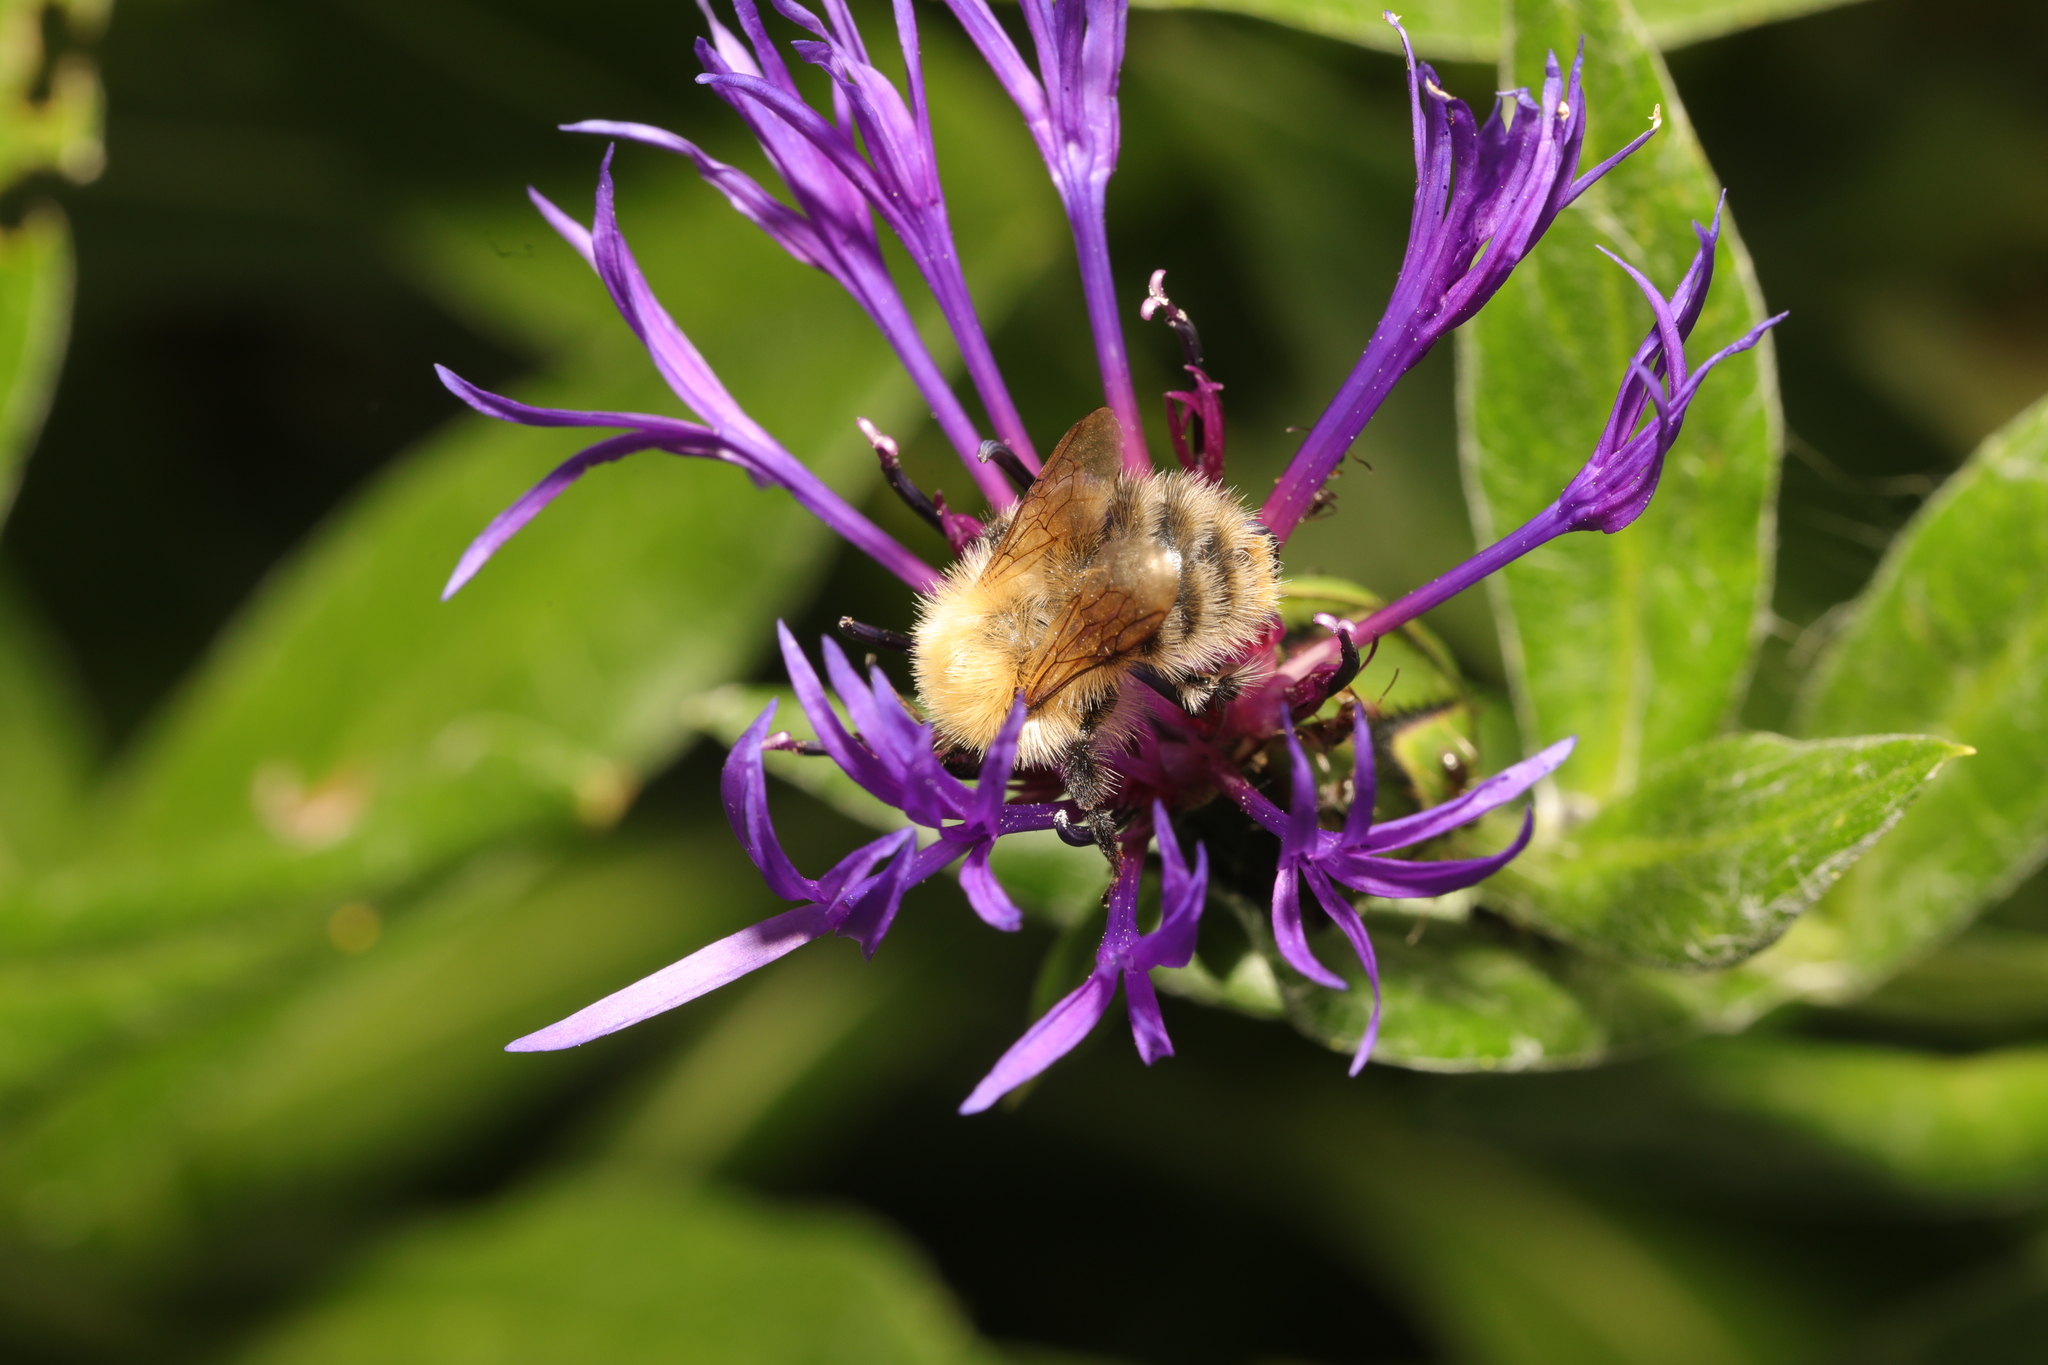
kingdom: Animalia
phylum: Arthropoda
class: Insecta
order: Hymenoptera
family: Apidae
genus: Bombus
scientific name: Bombus pascuorum
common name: Common carder bee
